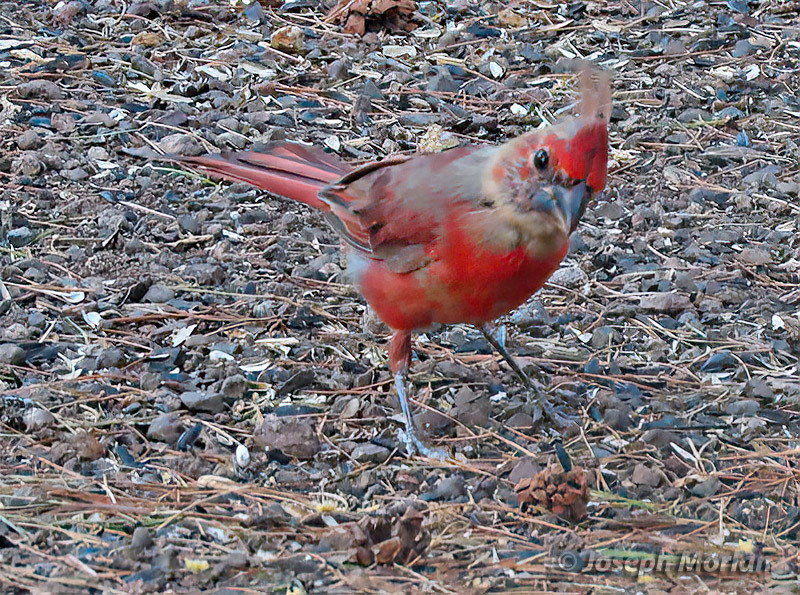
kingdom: Animalia
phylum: Chordata
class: Aves
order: Passeriformes
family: Cardinalidae
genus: Cardinalis
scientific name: Cardinalis cardinalis
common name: Northern cardinal
